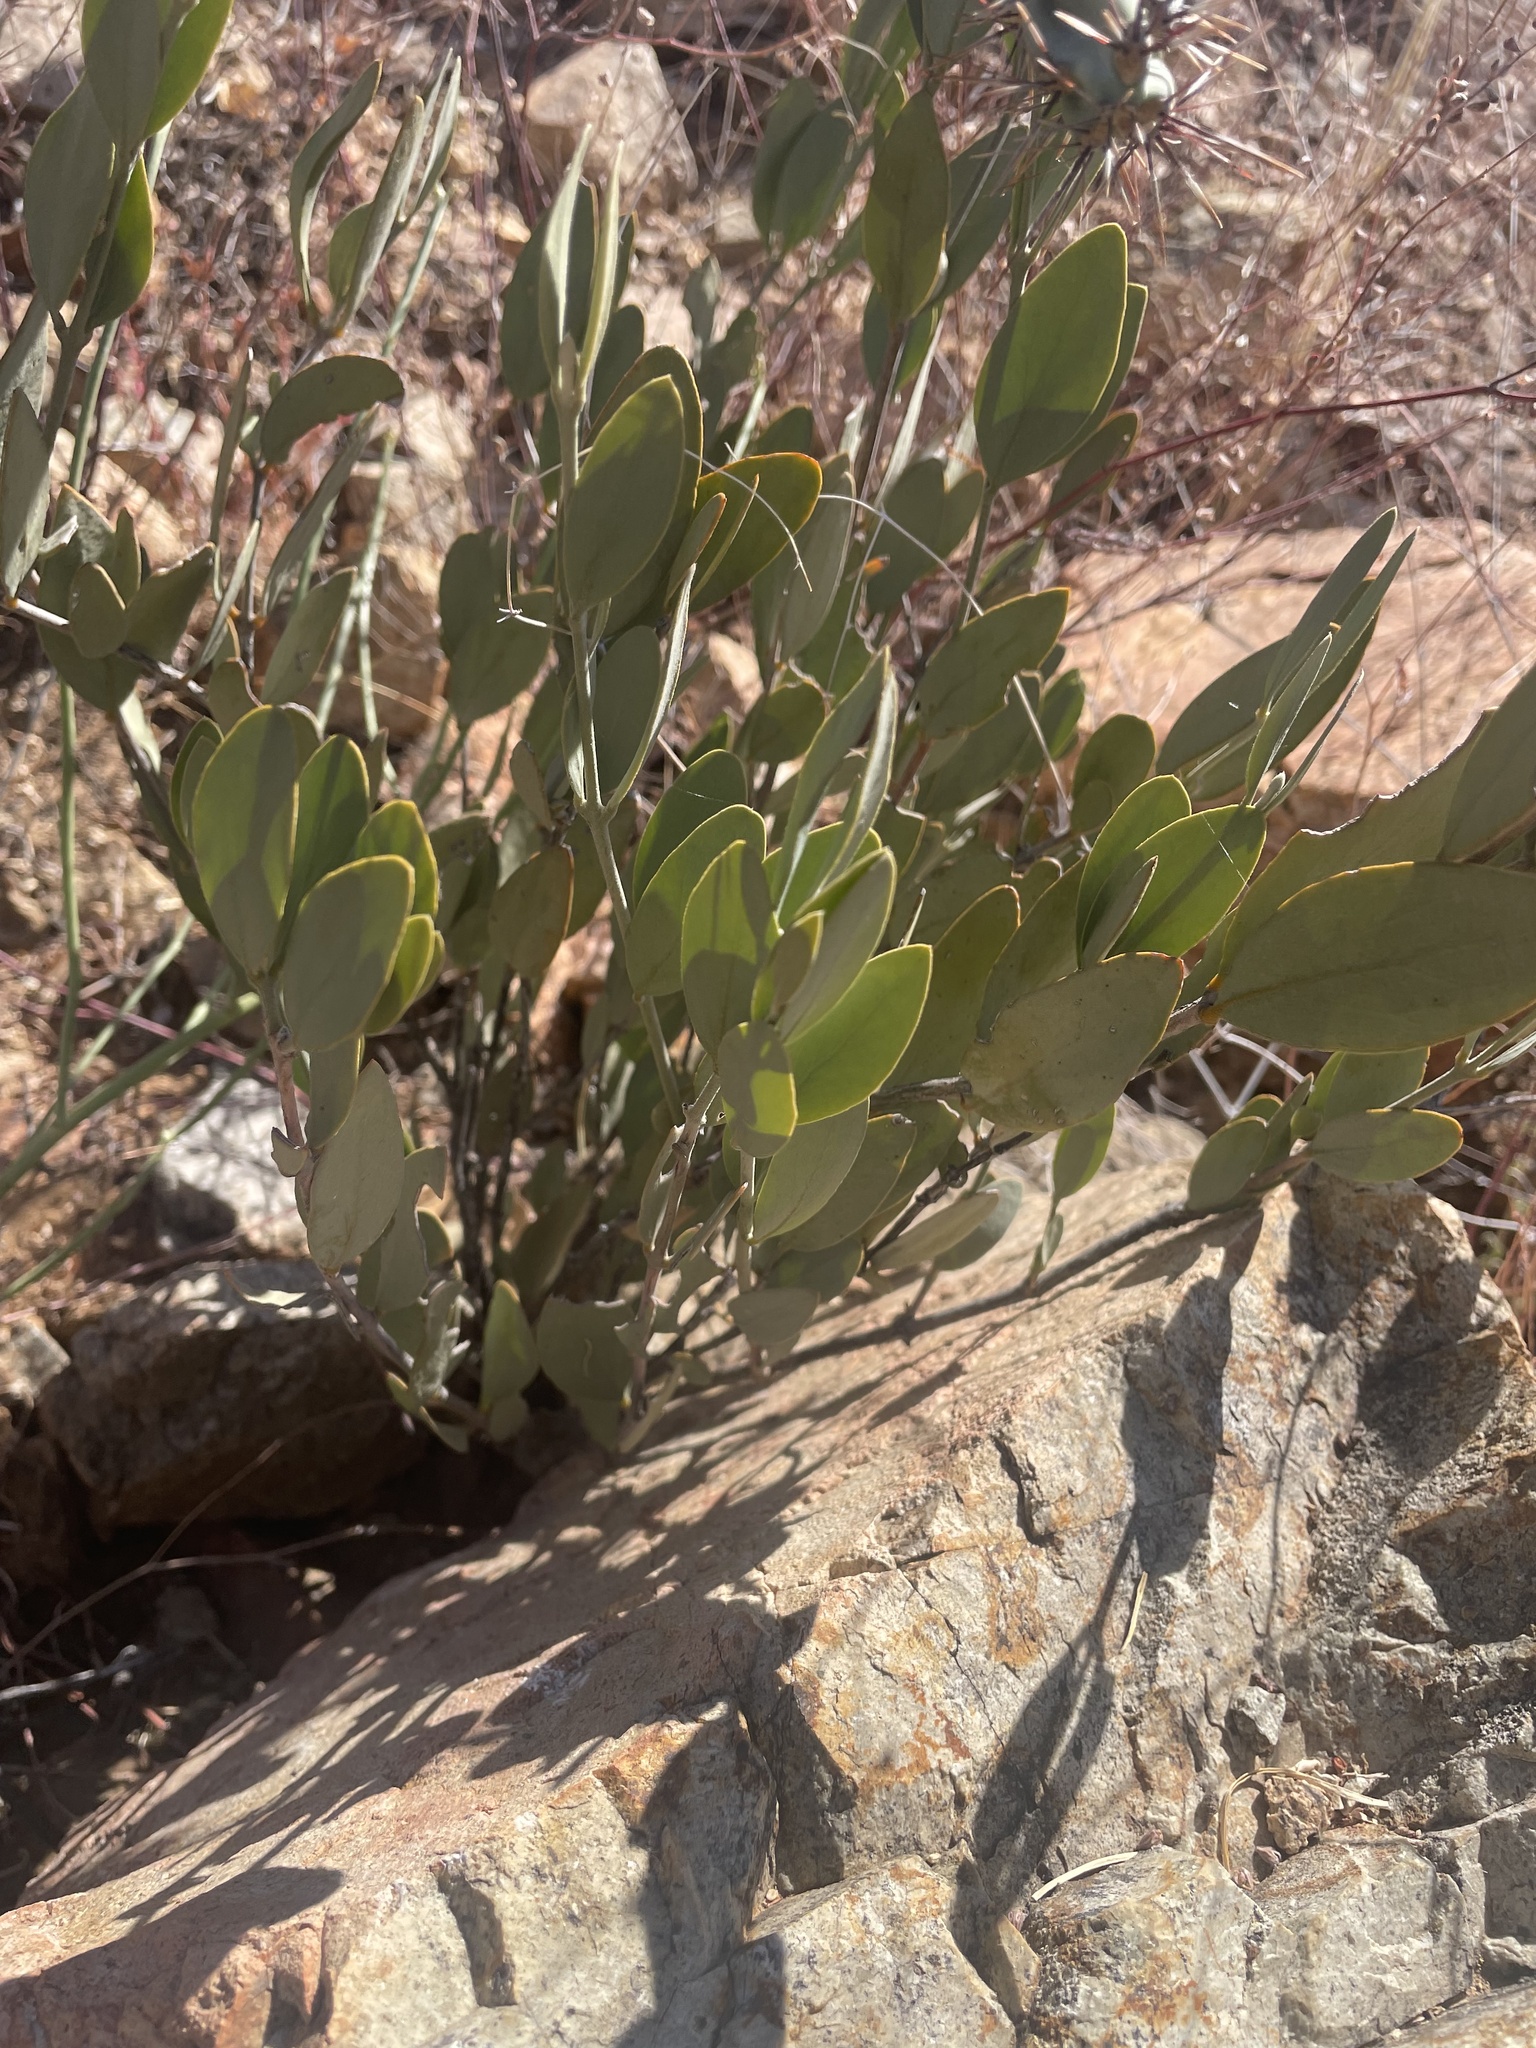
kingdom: Plantae
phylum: Tracheophyta
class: Magnoliopsida
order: Caryophyllales
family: Simmondsiaceae
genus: Simmondsia
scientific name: Simmondsia chinensis
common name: Jojoba
